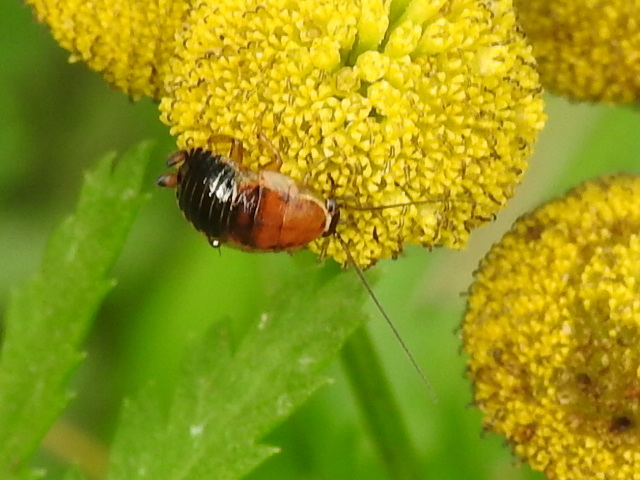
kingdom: Animalia
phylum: Arthropoda
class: Insecta
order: Blattodea
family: Ectobiidae
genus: Ectobius
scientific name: Ectobius sylvestris
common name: Forest cockroach
